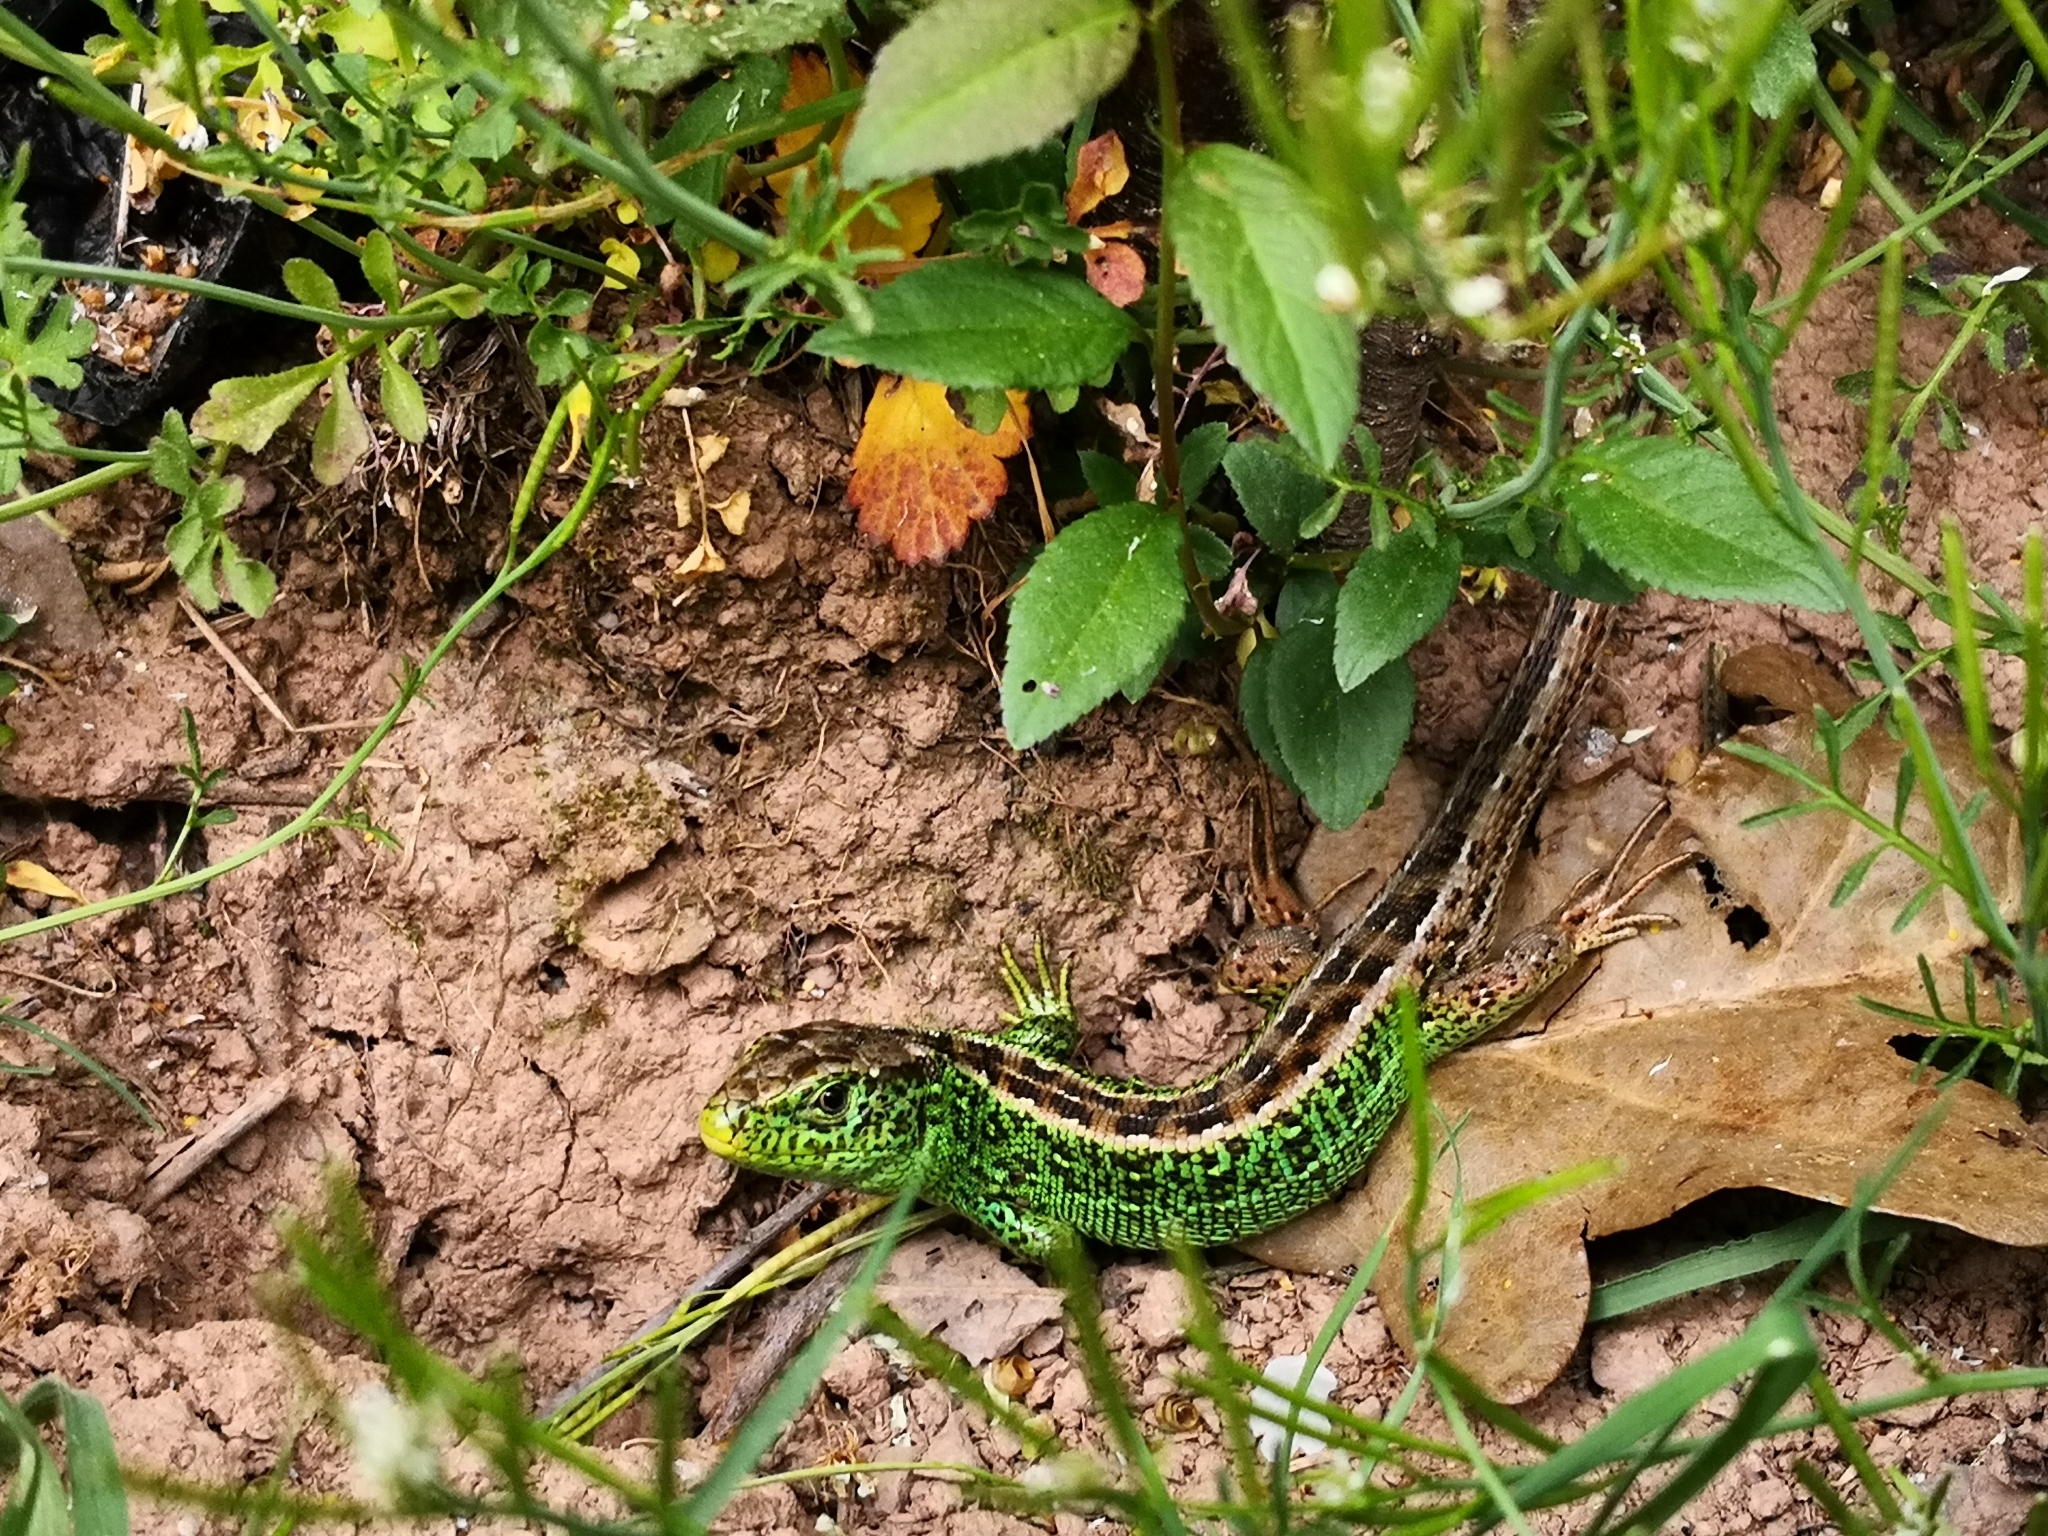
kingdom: Animalia
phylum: Chordata
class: Squamata
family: Lacertidae
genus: Lacerta
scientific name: Lacerta agilis
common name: Sand lizard
